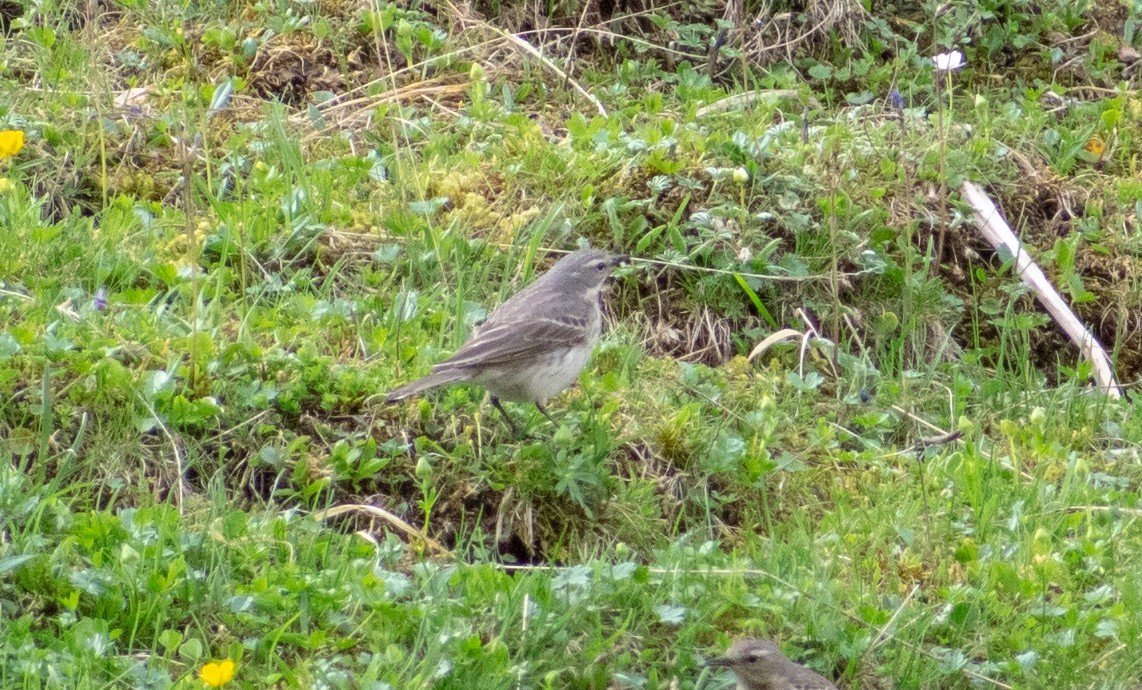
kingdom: Animalia
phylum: Chordata
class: Aves
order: Passeriformes
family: Motacillidae
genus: Anthus
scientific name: Anthus spinoletta
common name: Water pipit
